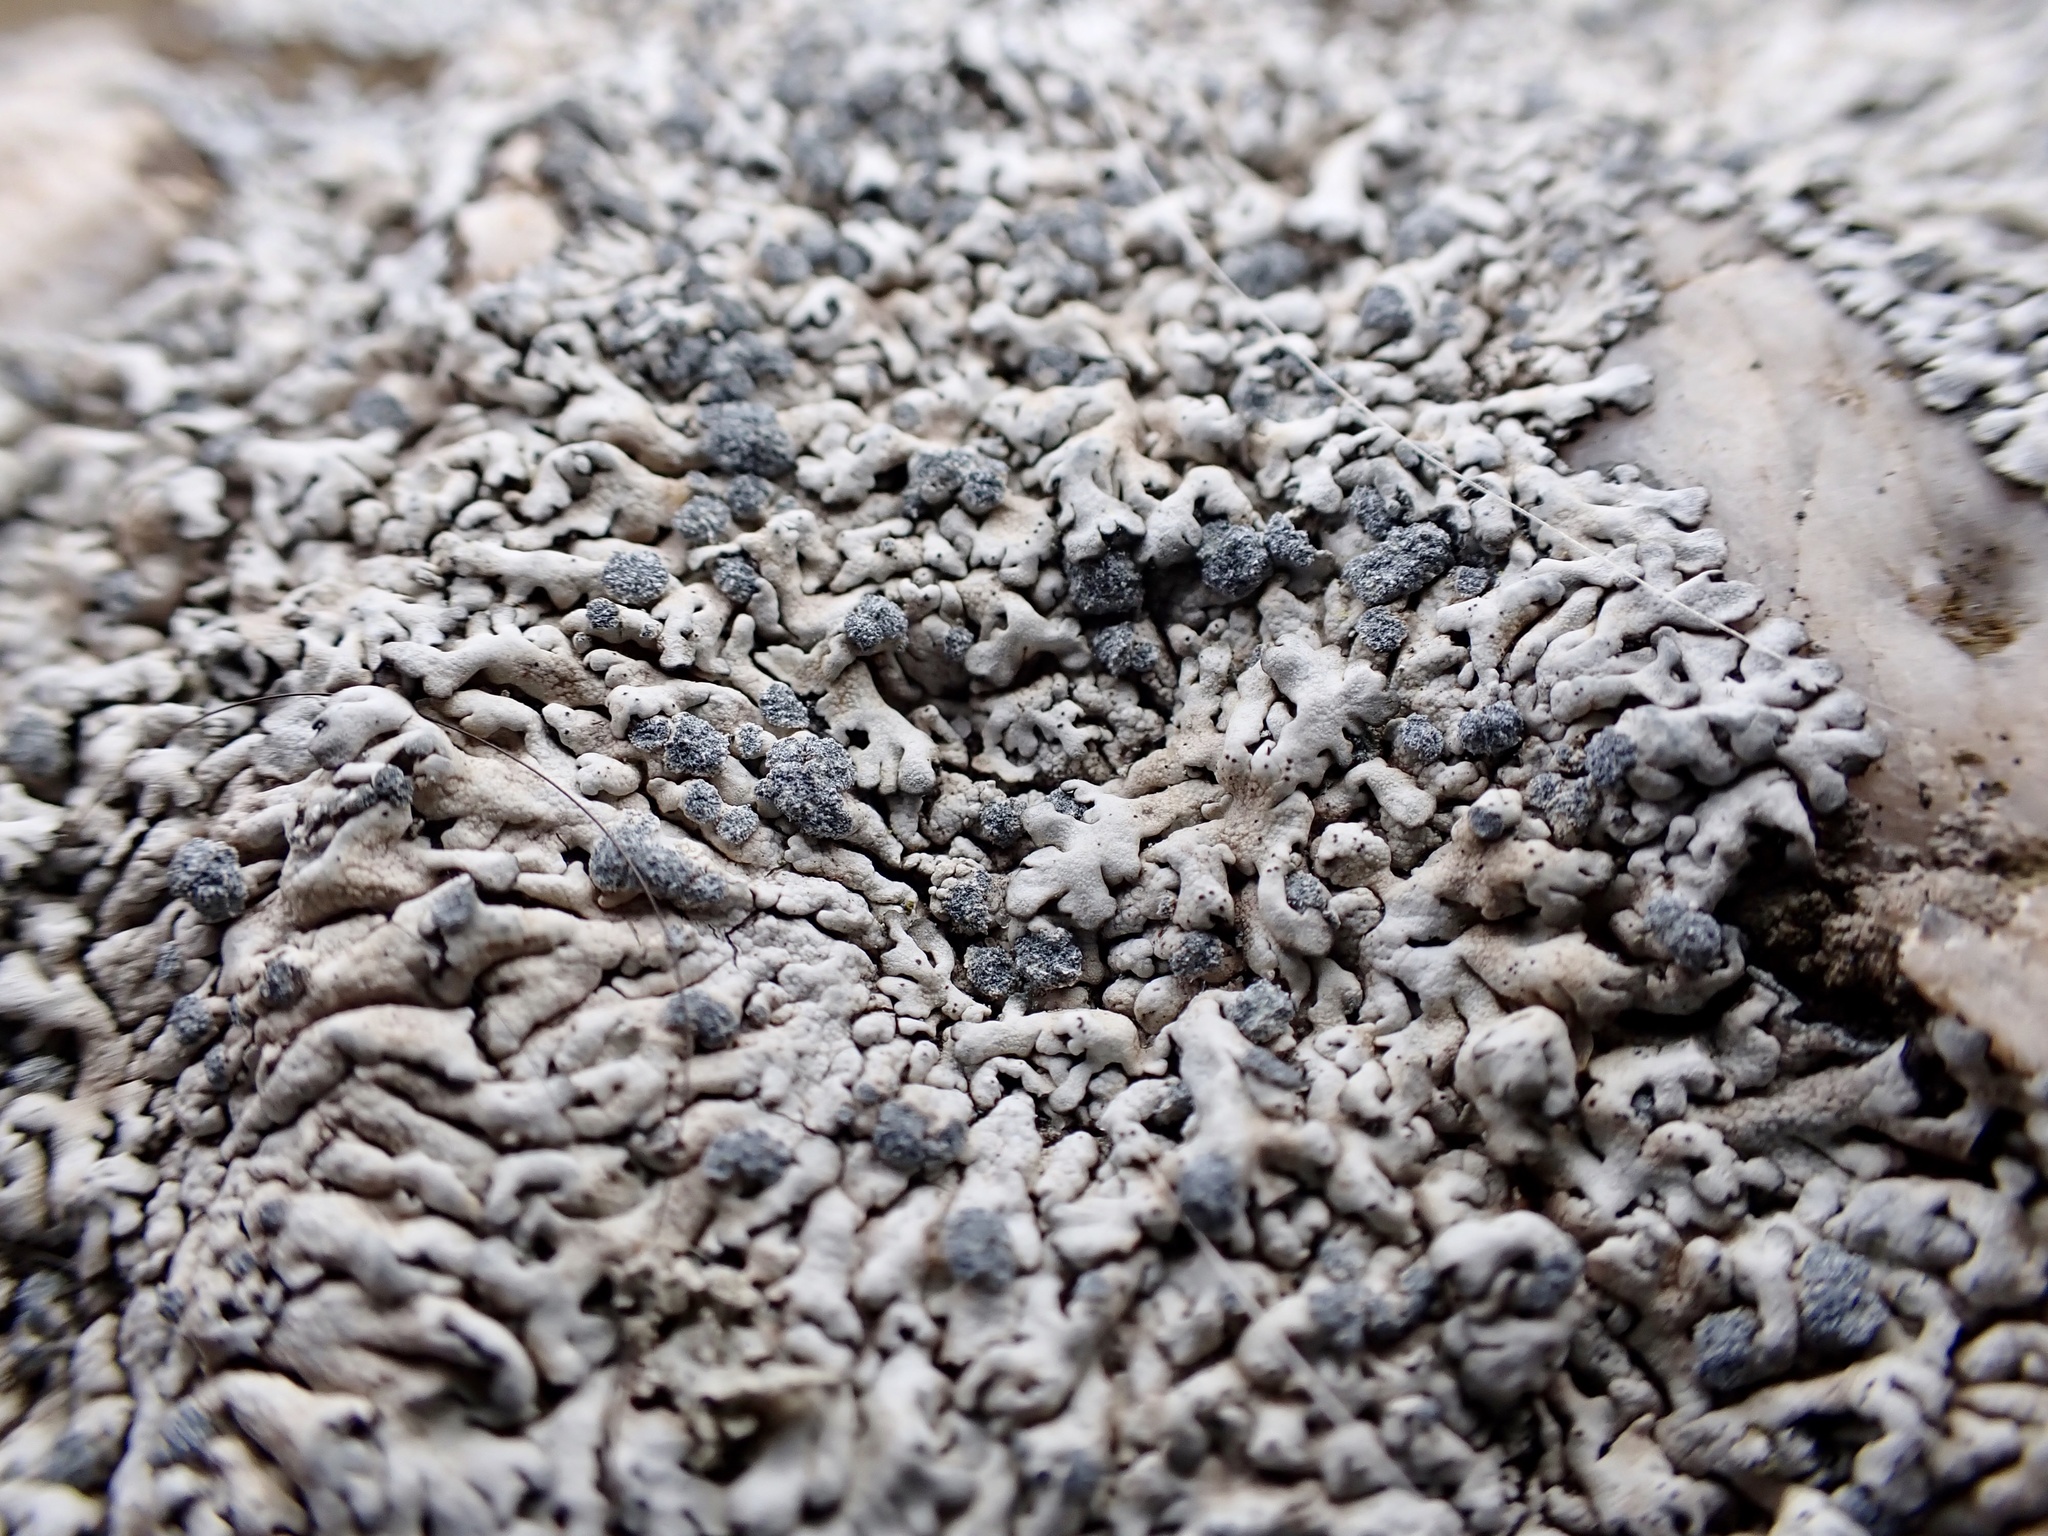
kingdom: Fungi
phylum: Ascomycota
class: Lecanoromycetes
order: Caliciales
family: Physciaceae
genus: Physcia
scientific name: Physcia caesia
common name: Blue-gray rosette lichen
